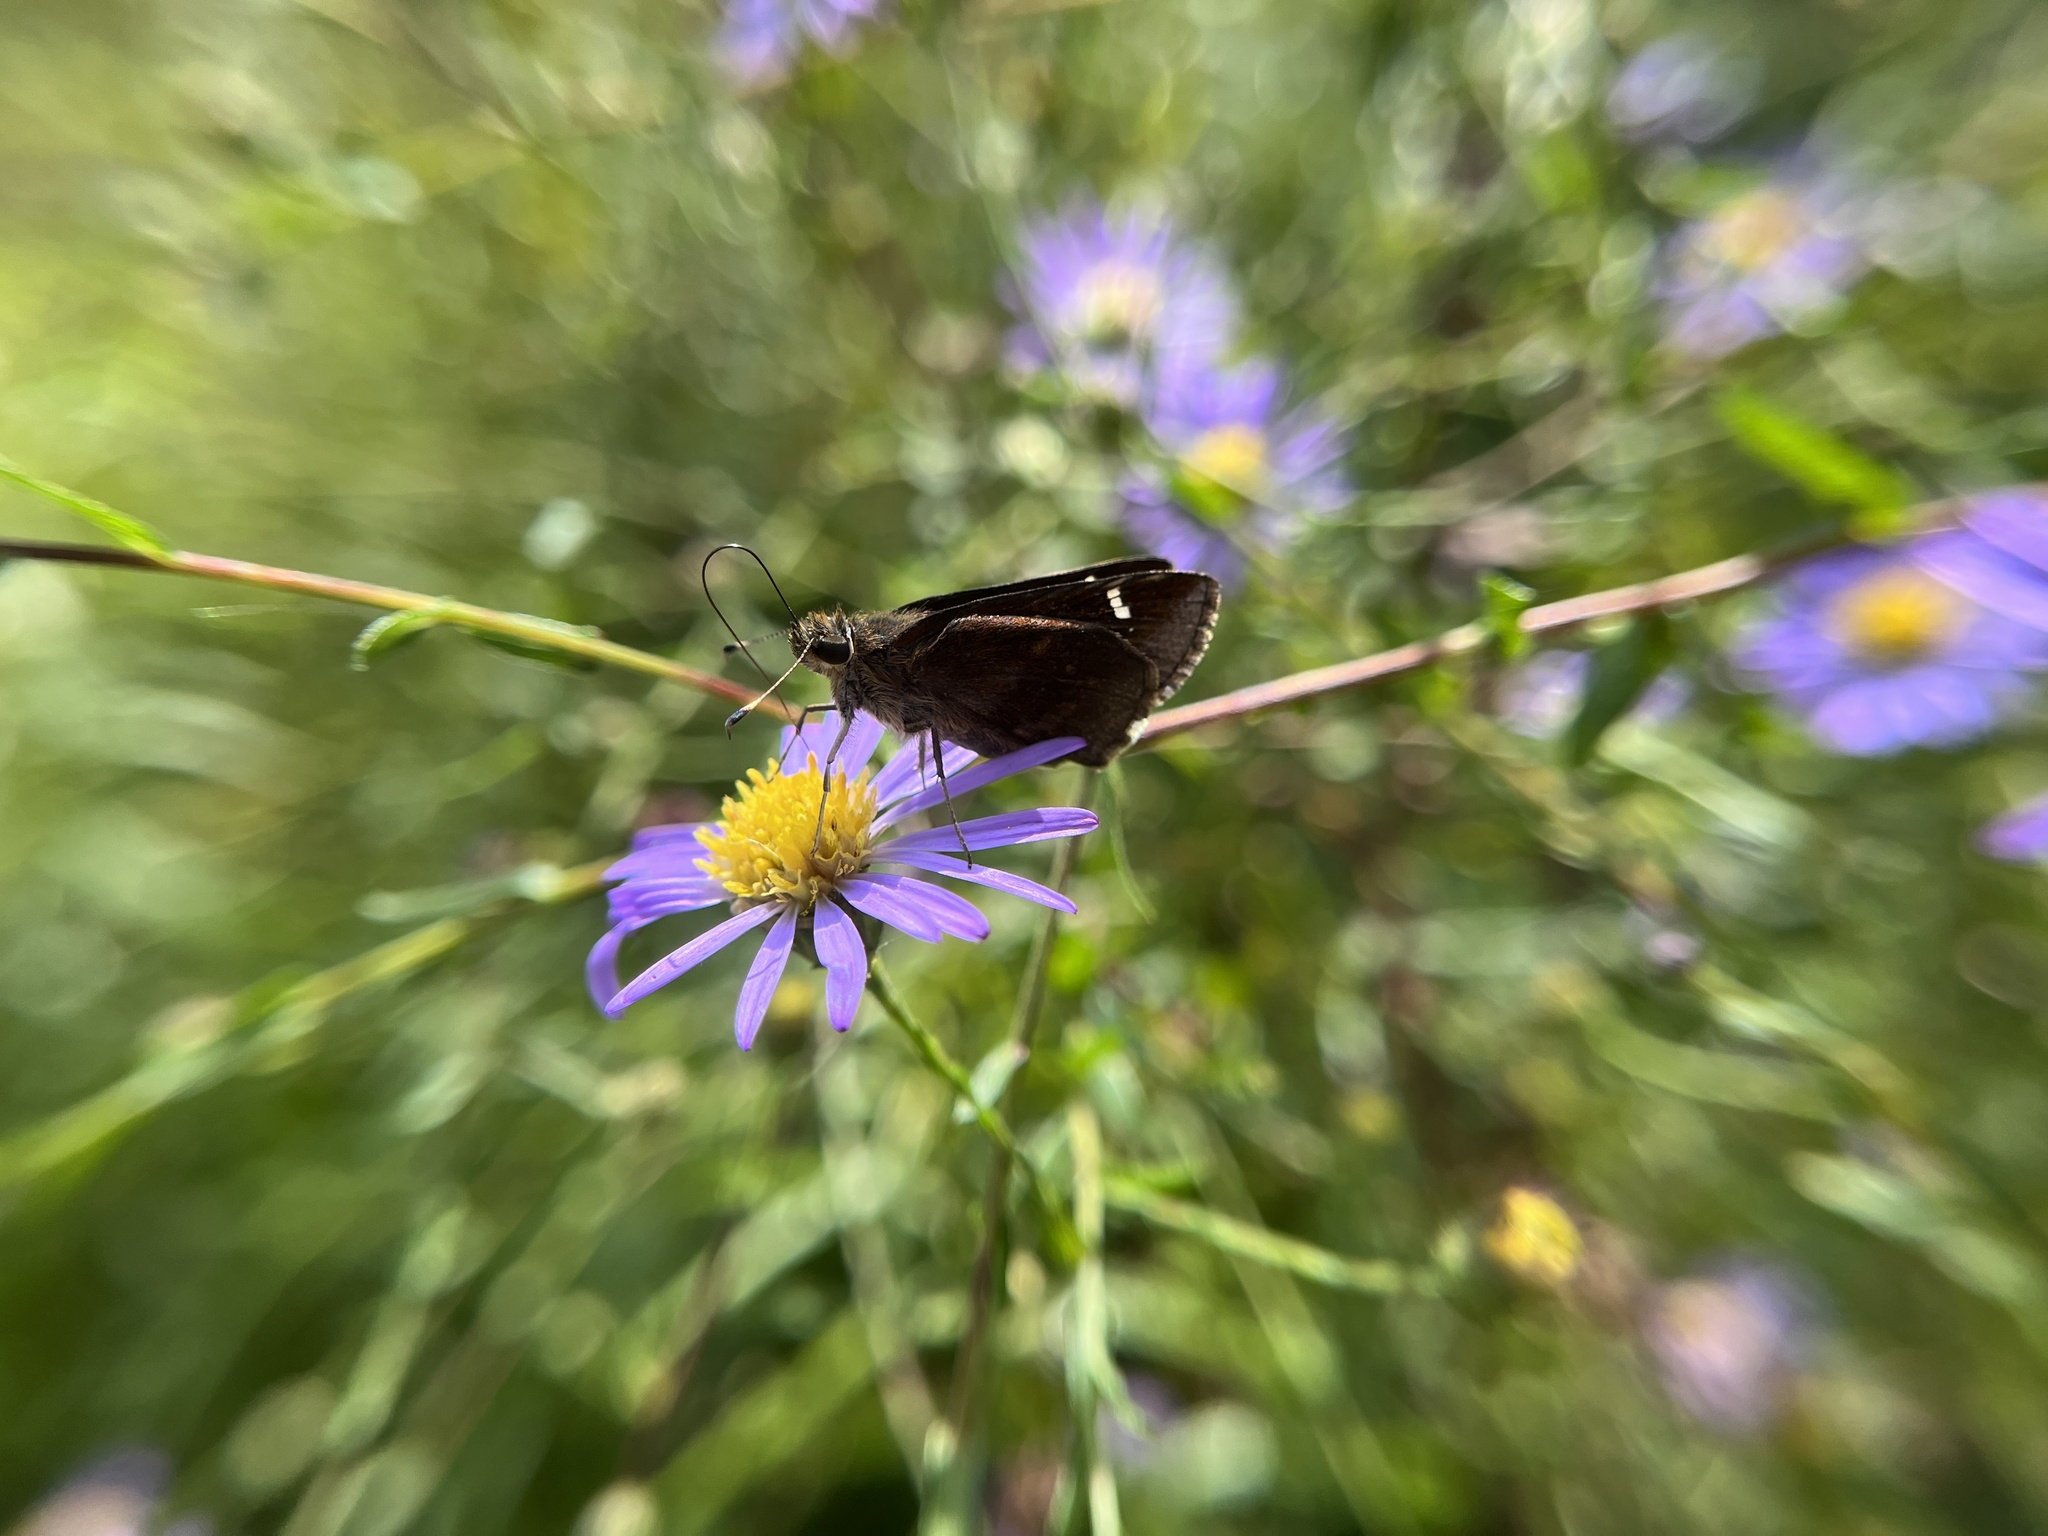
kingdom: Animalia
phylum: Arthropoda
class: Insecta
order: Lepidoptera
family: Hesperiidae
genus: Lerema
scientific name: Lerema accius
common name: Clouded skipper
